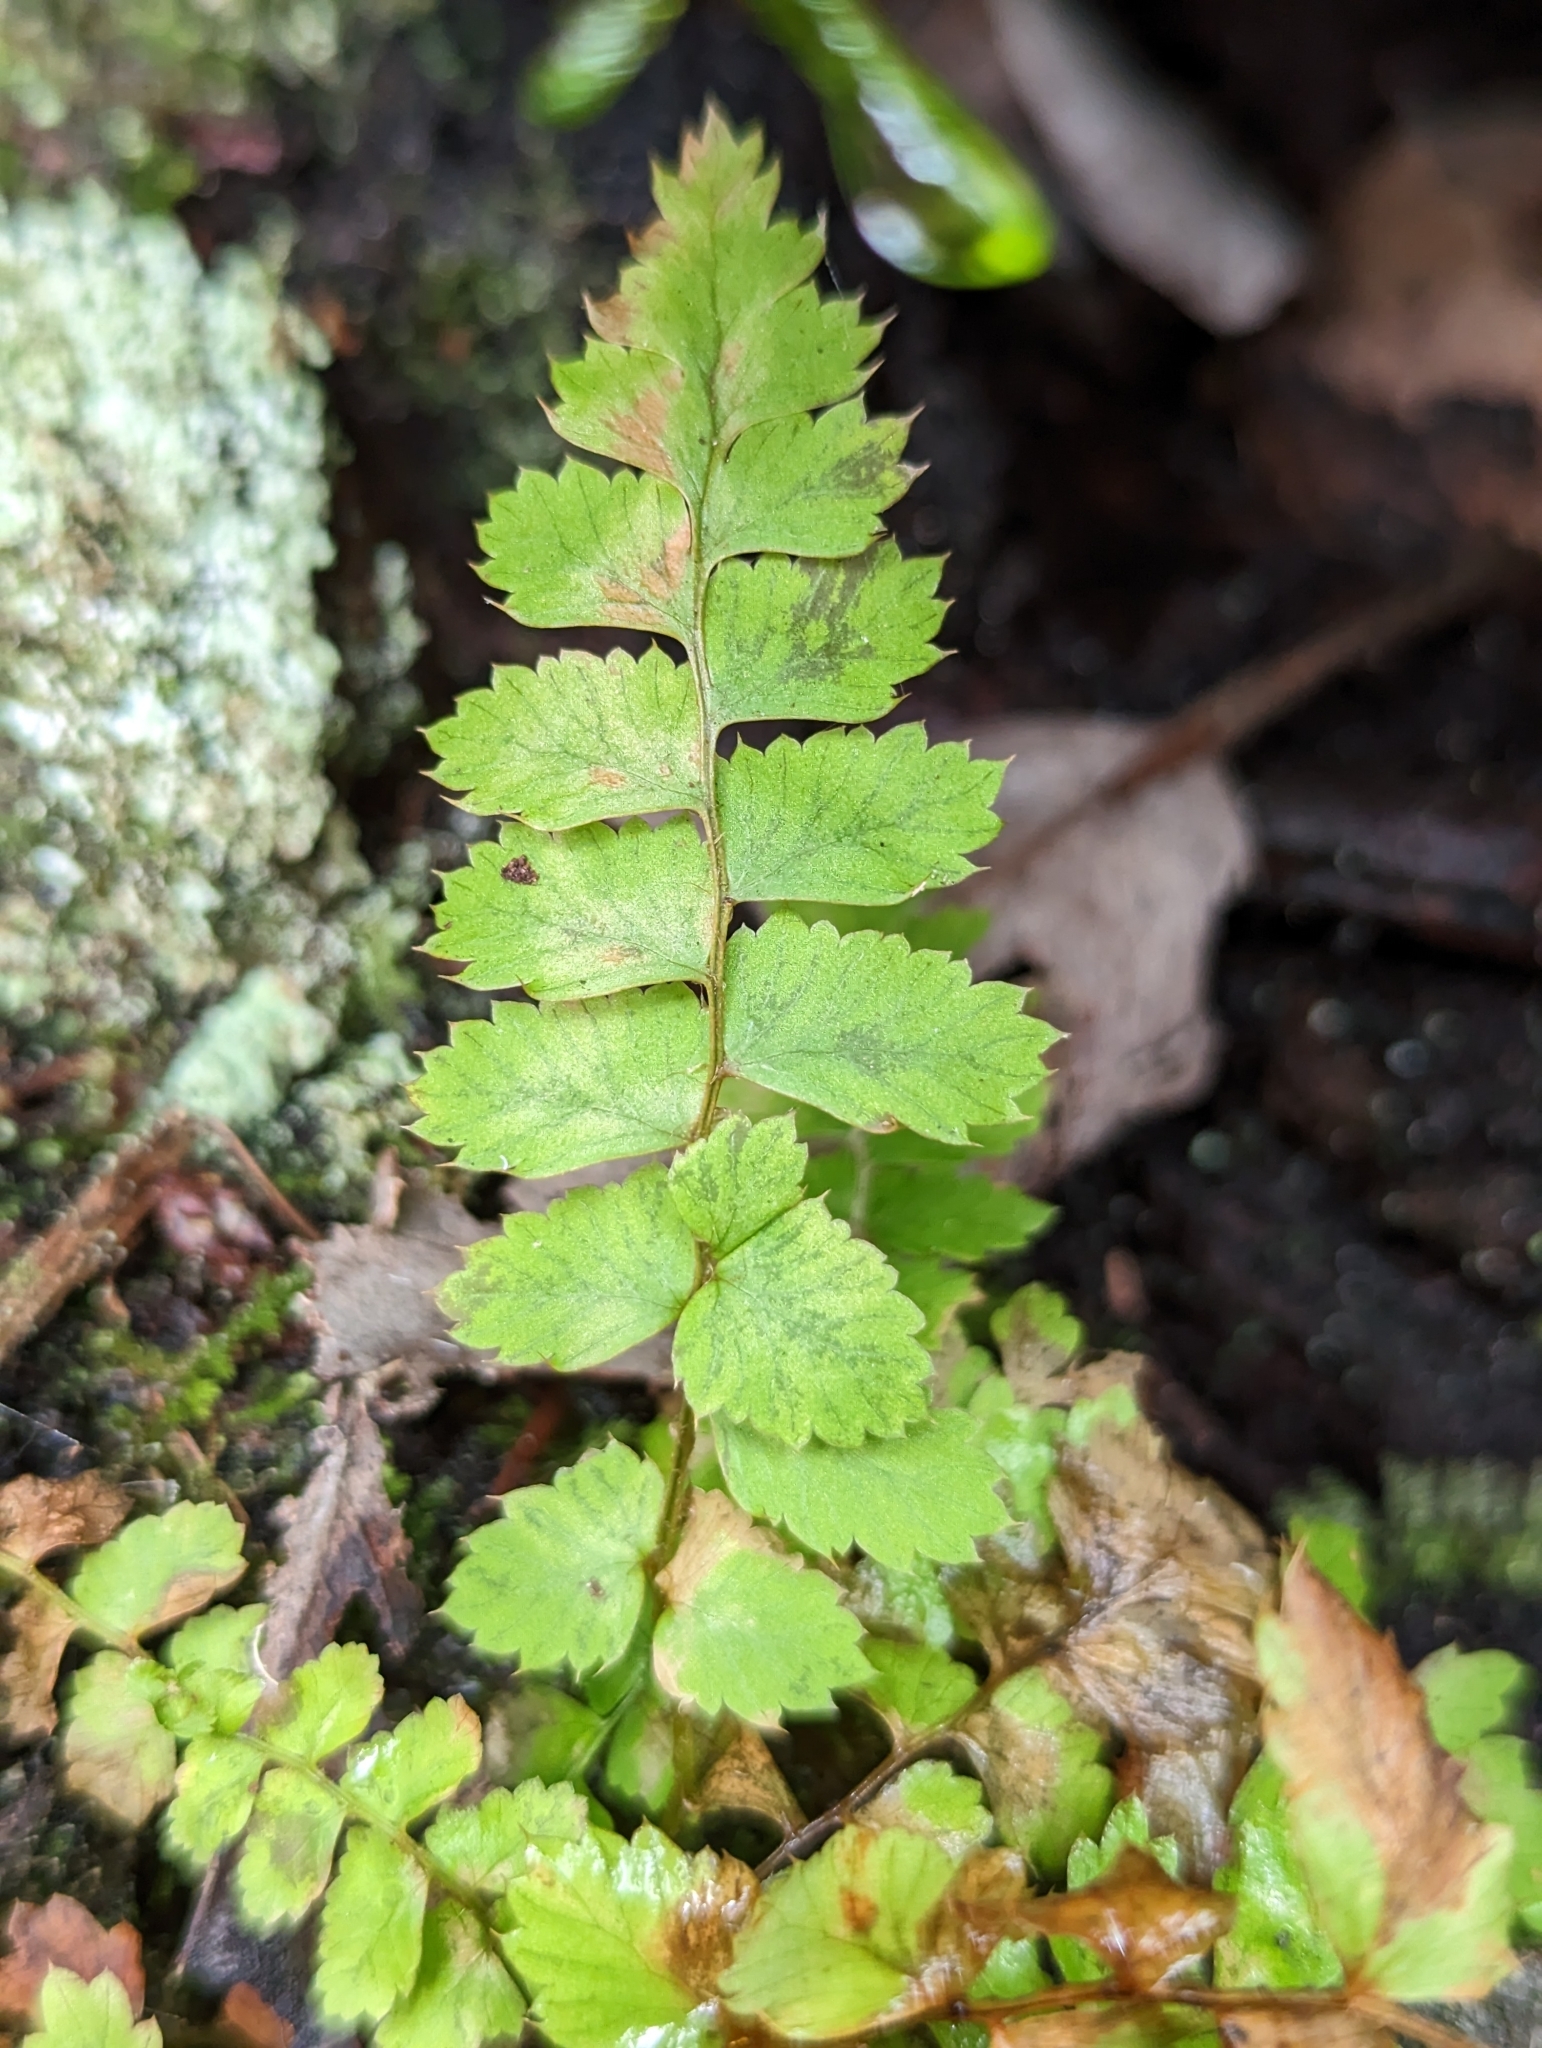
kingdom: Plantae
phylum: Tracheophyta
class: Polypodiopsida
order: Polypodiales
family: Dryopteridaceae
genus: Polystichum
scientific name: Polystichum munitum
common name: Western sword-fern
